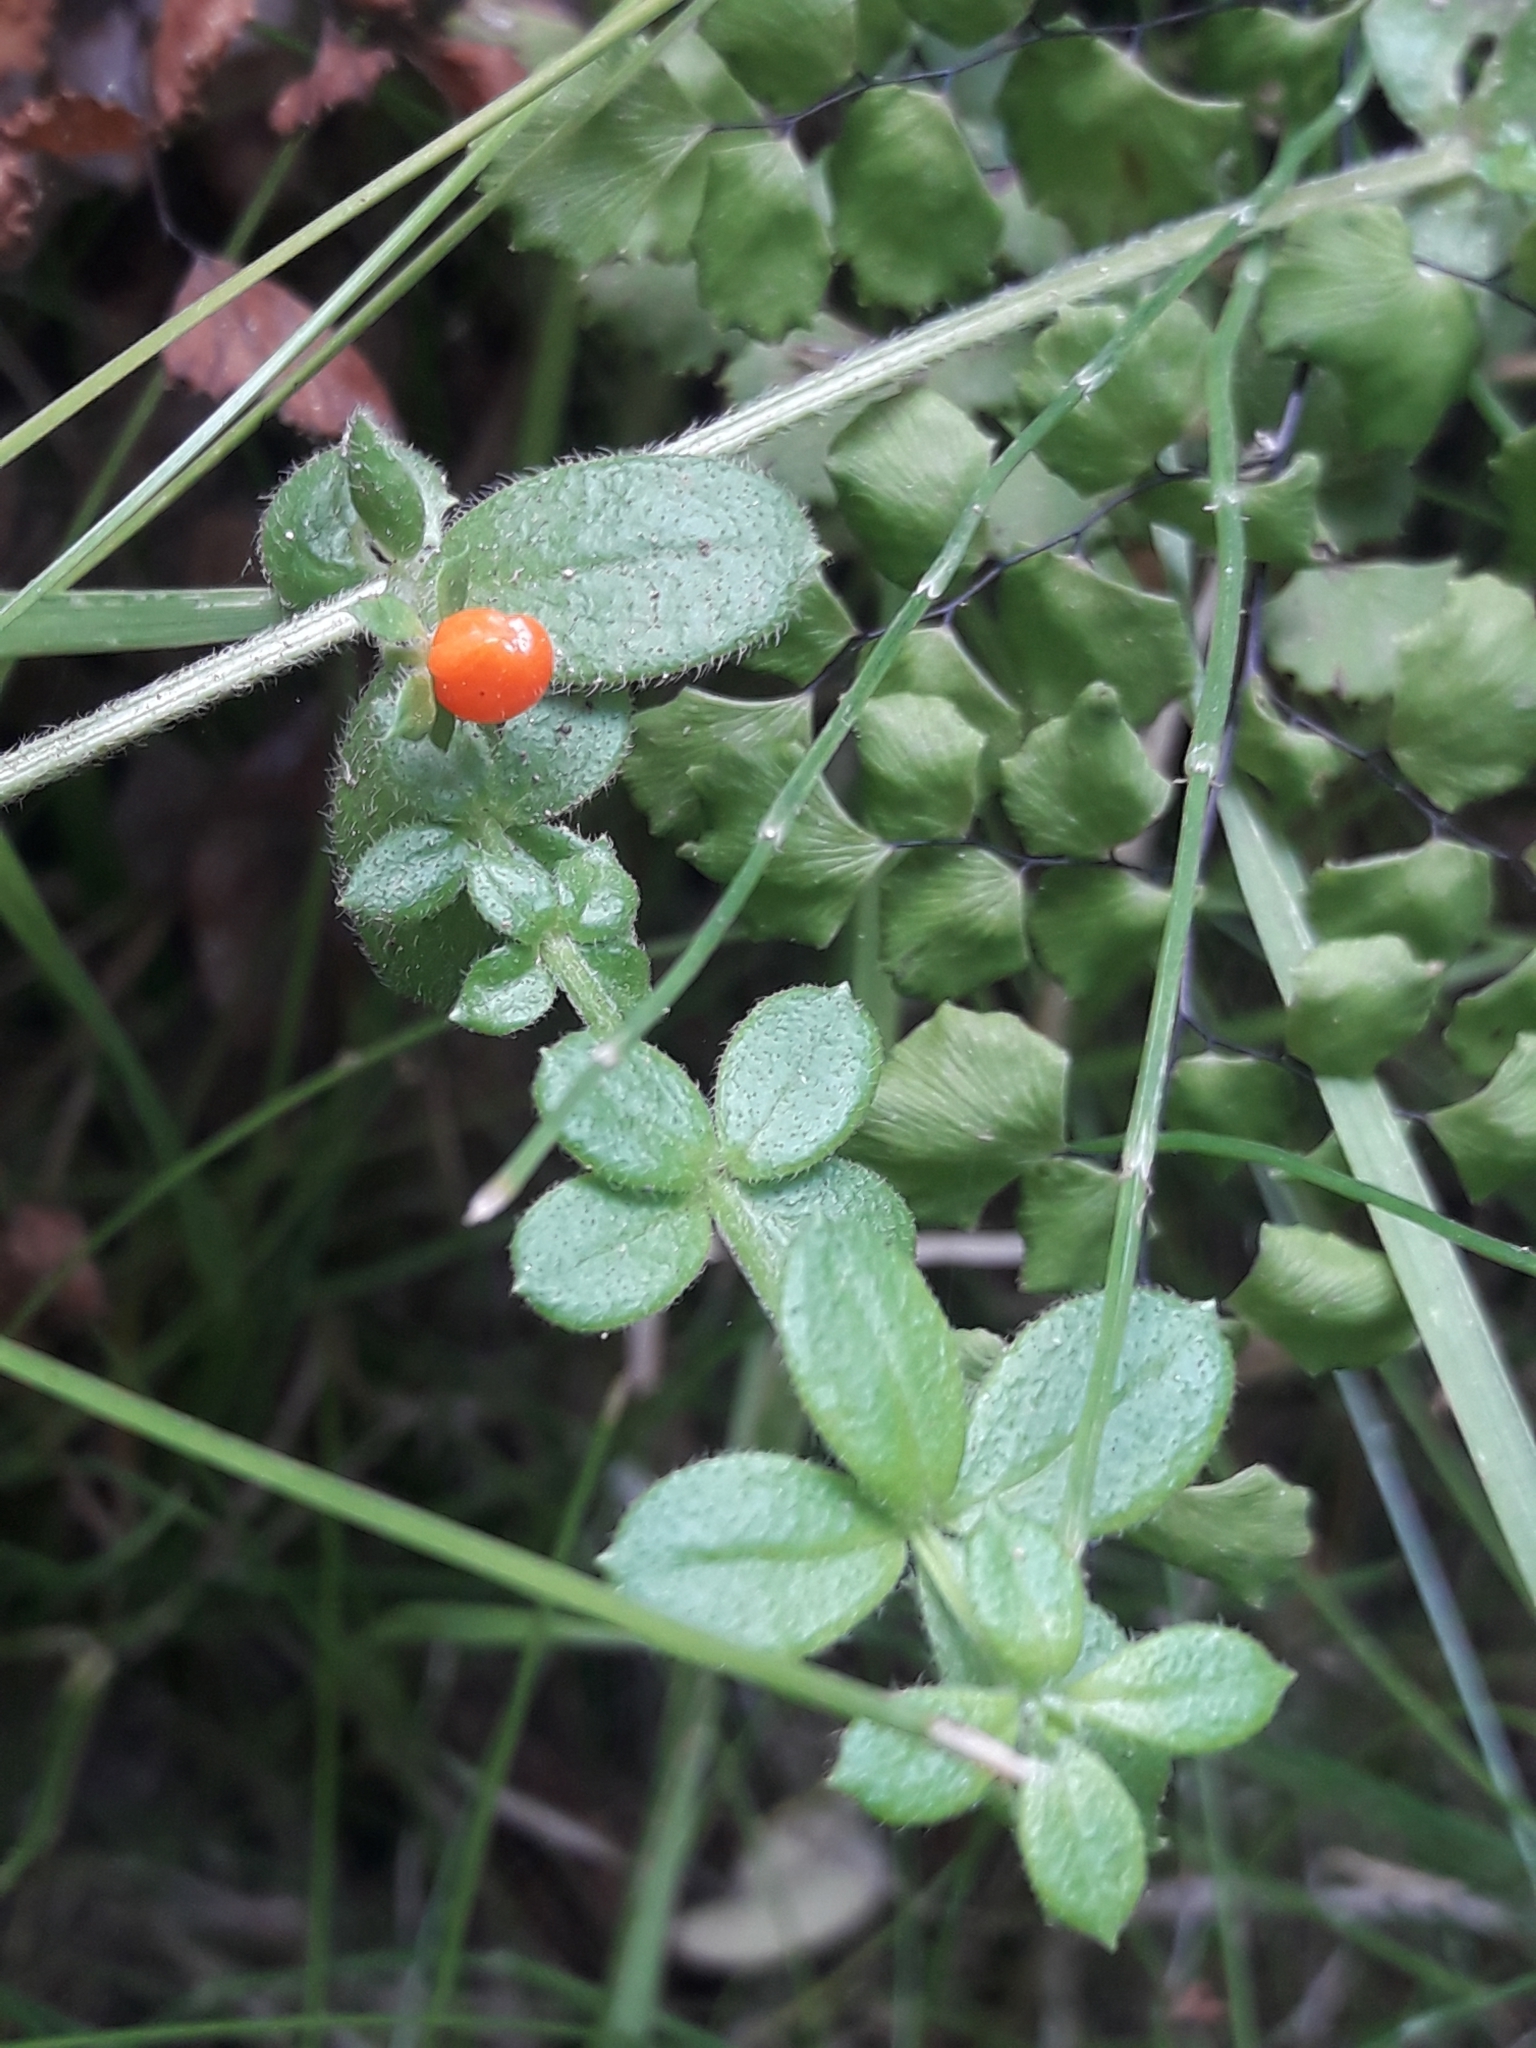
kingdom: Plantae
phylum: Tracheophyta
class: Magnoliopsida
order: Gentianales
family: Rubiaceae
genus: Galium
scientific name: Galium hypocarpium
